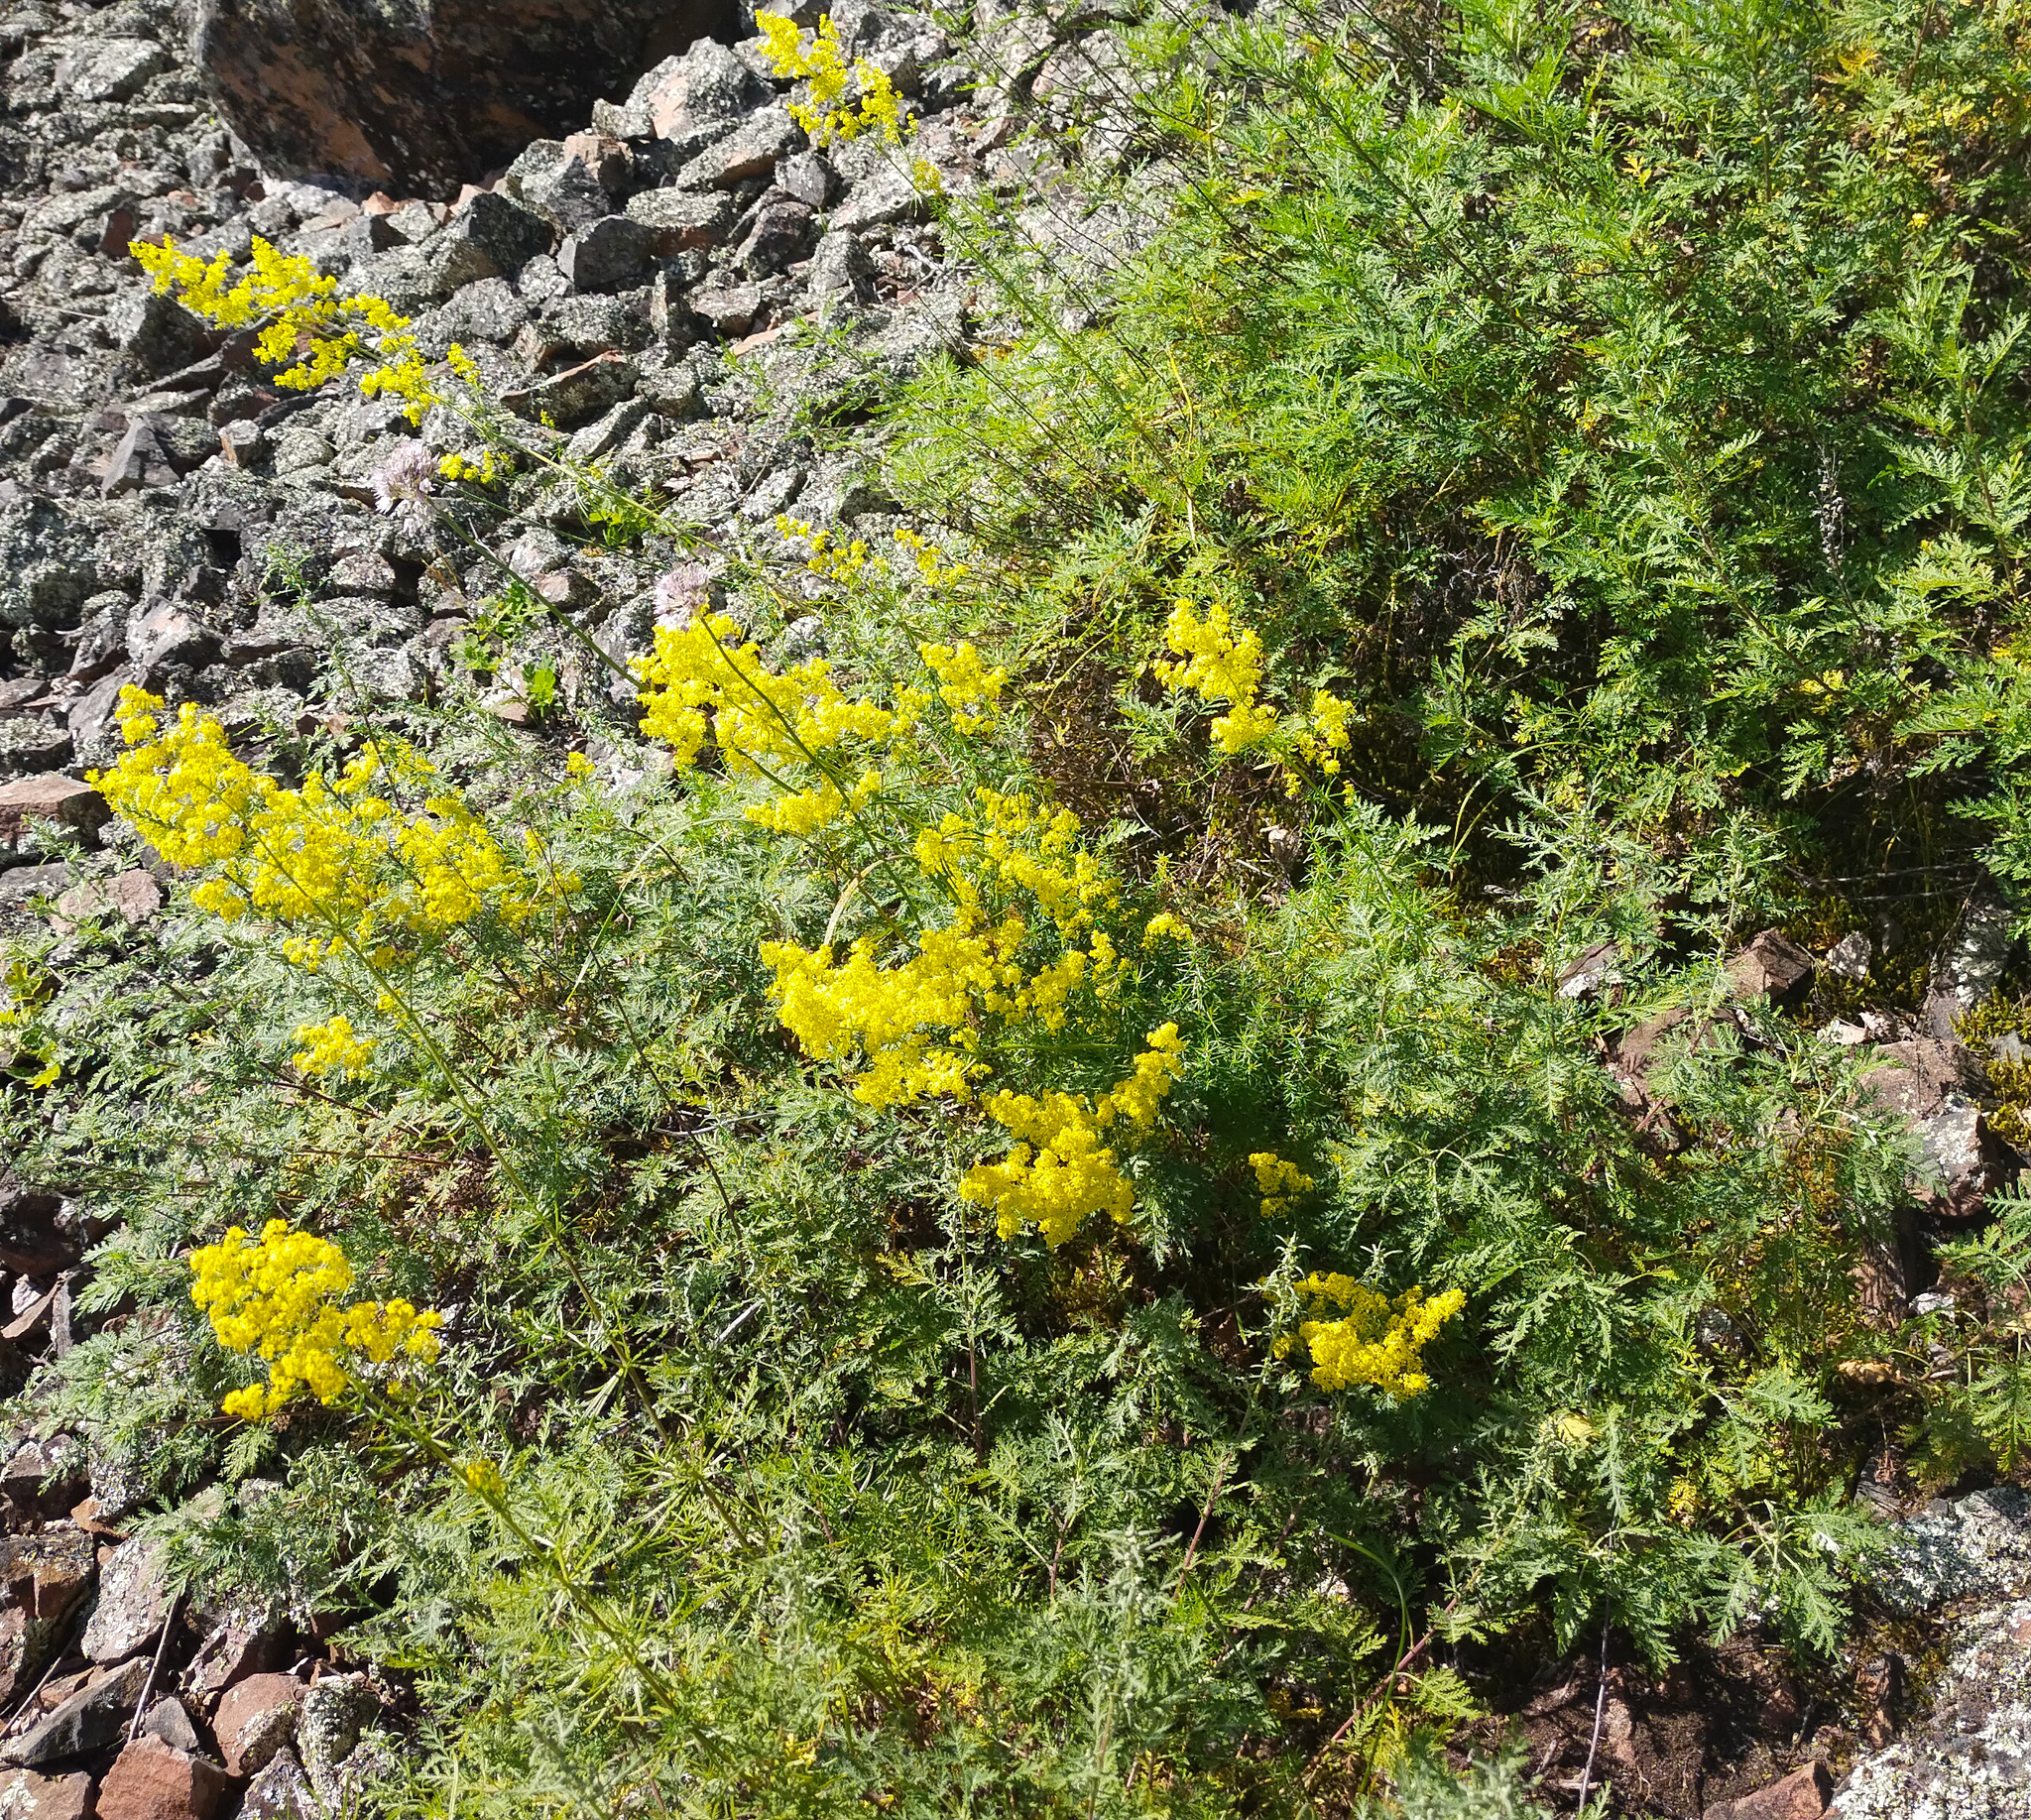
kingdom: Plantae
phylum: Tracheophyta
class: Magnoliopsida
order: Gentianales
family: Rubiaceae
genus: Galium
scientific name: Galium verum
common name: Lady's bedstraw
